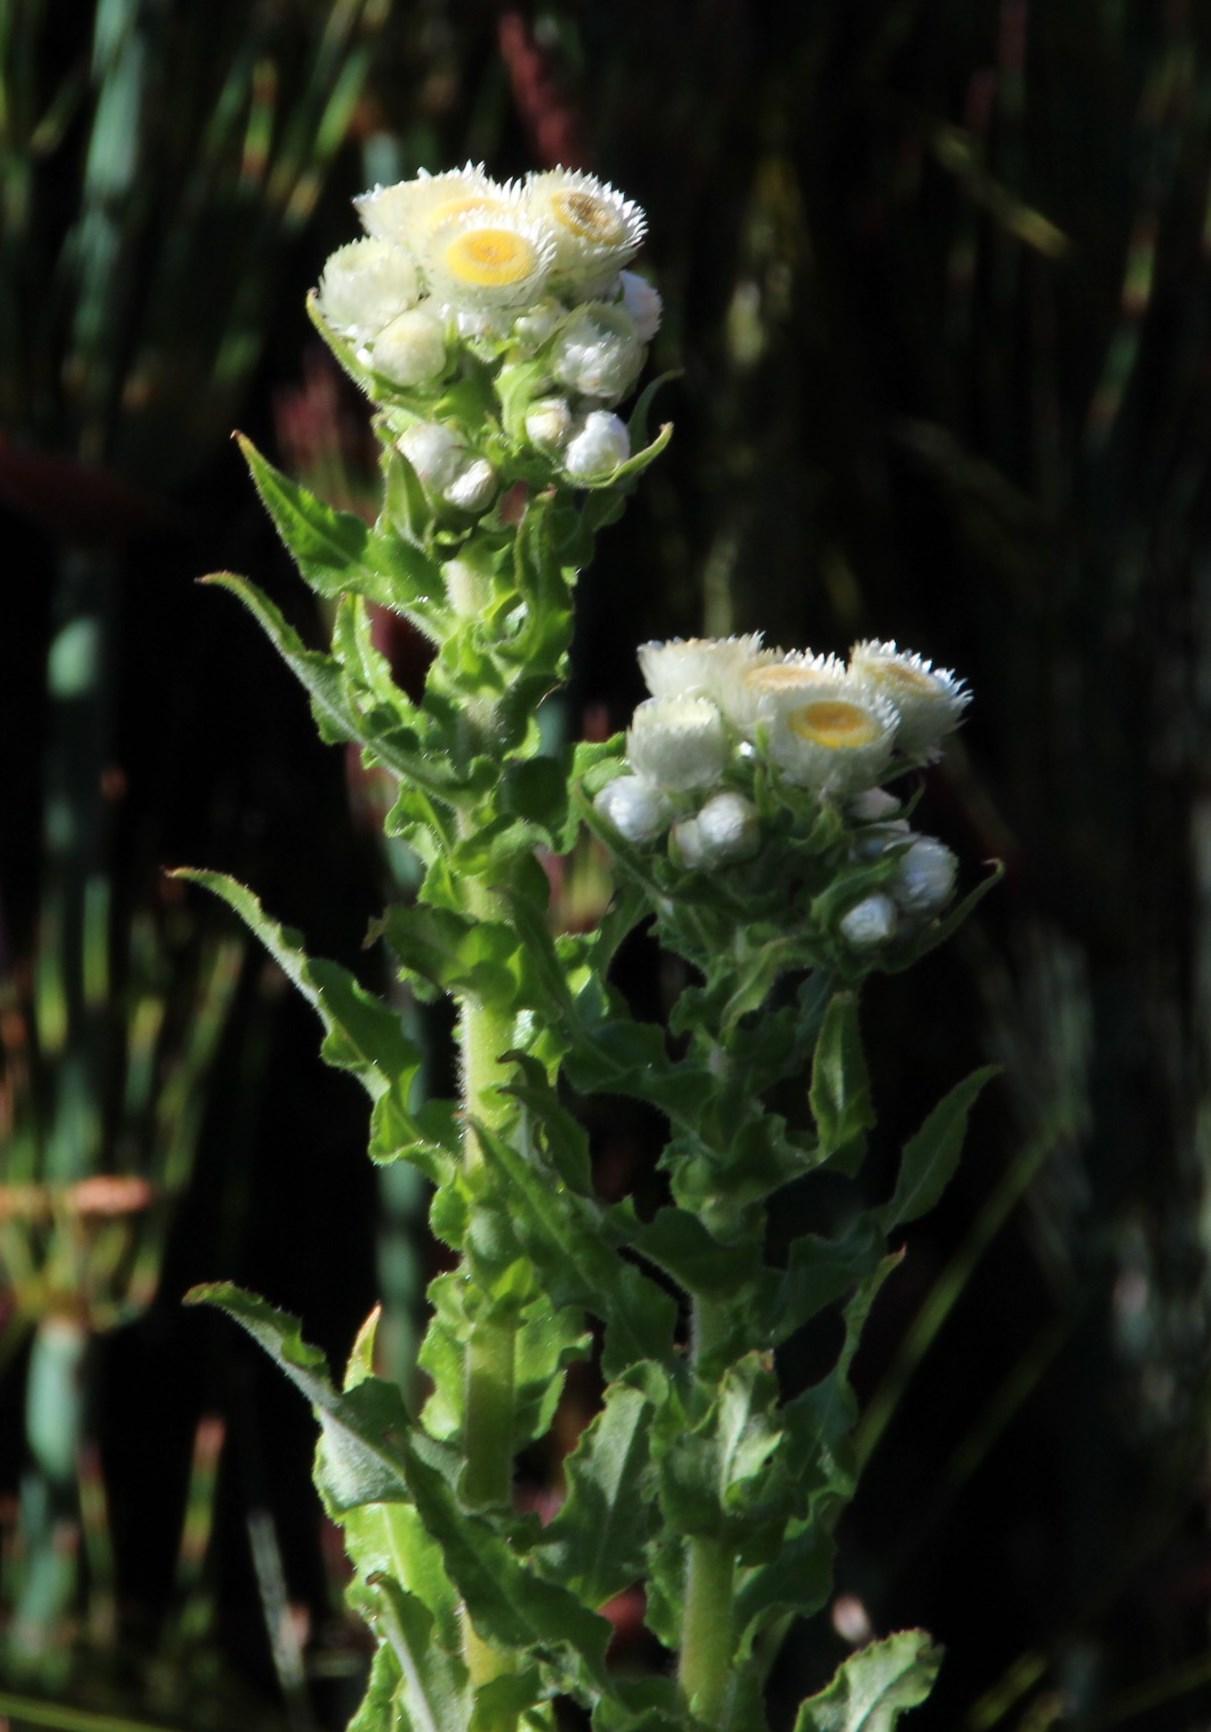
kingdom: Plantae
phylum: Tracheophyta
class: Magnoliopsida
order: Asterales
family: Asteraceae
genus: Helichrysum
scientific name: Helichrysum foetidum
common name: Stinking everlasting
